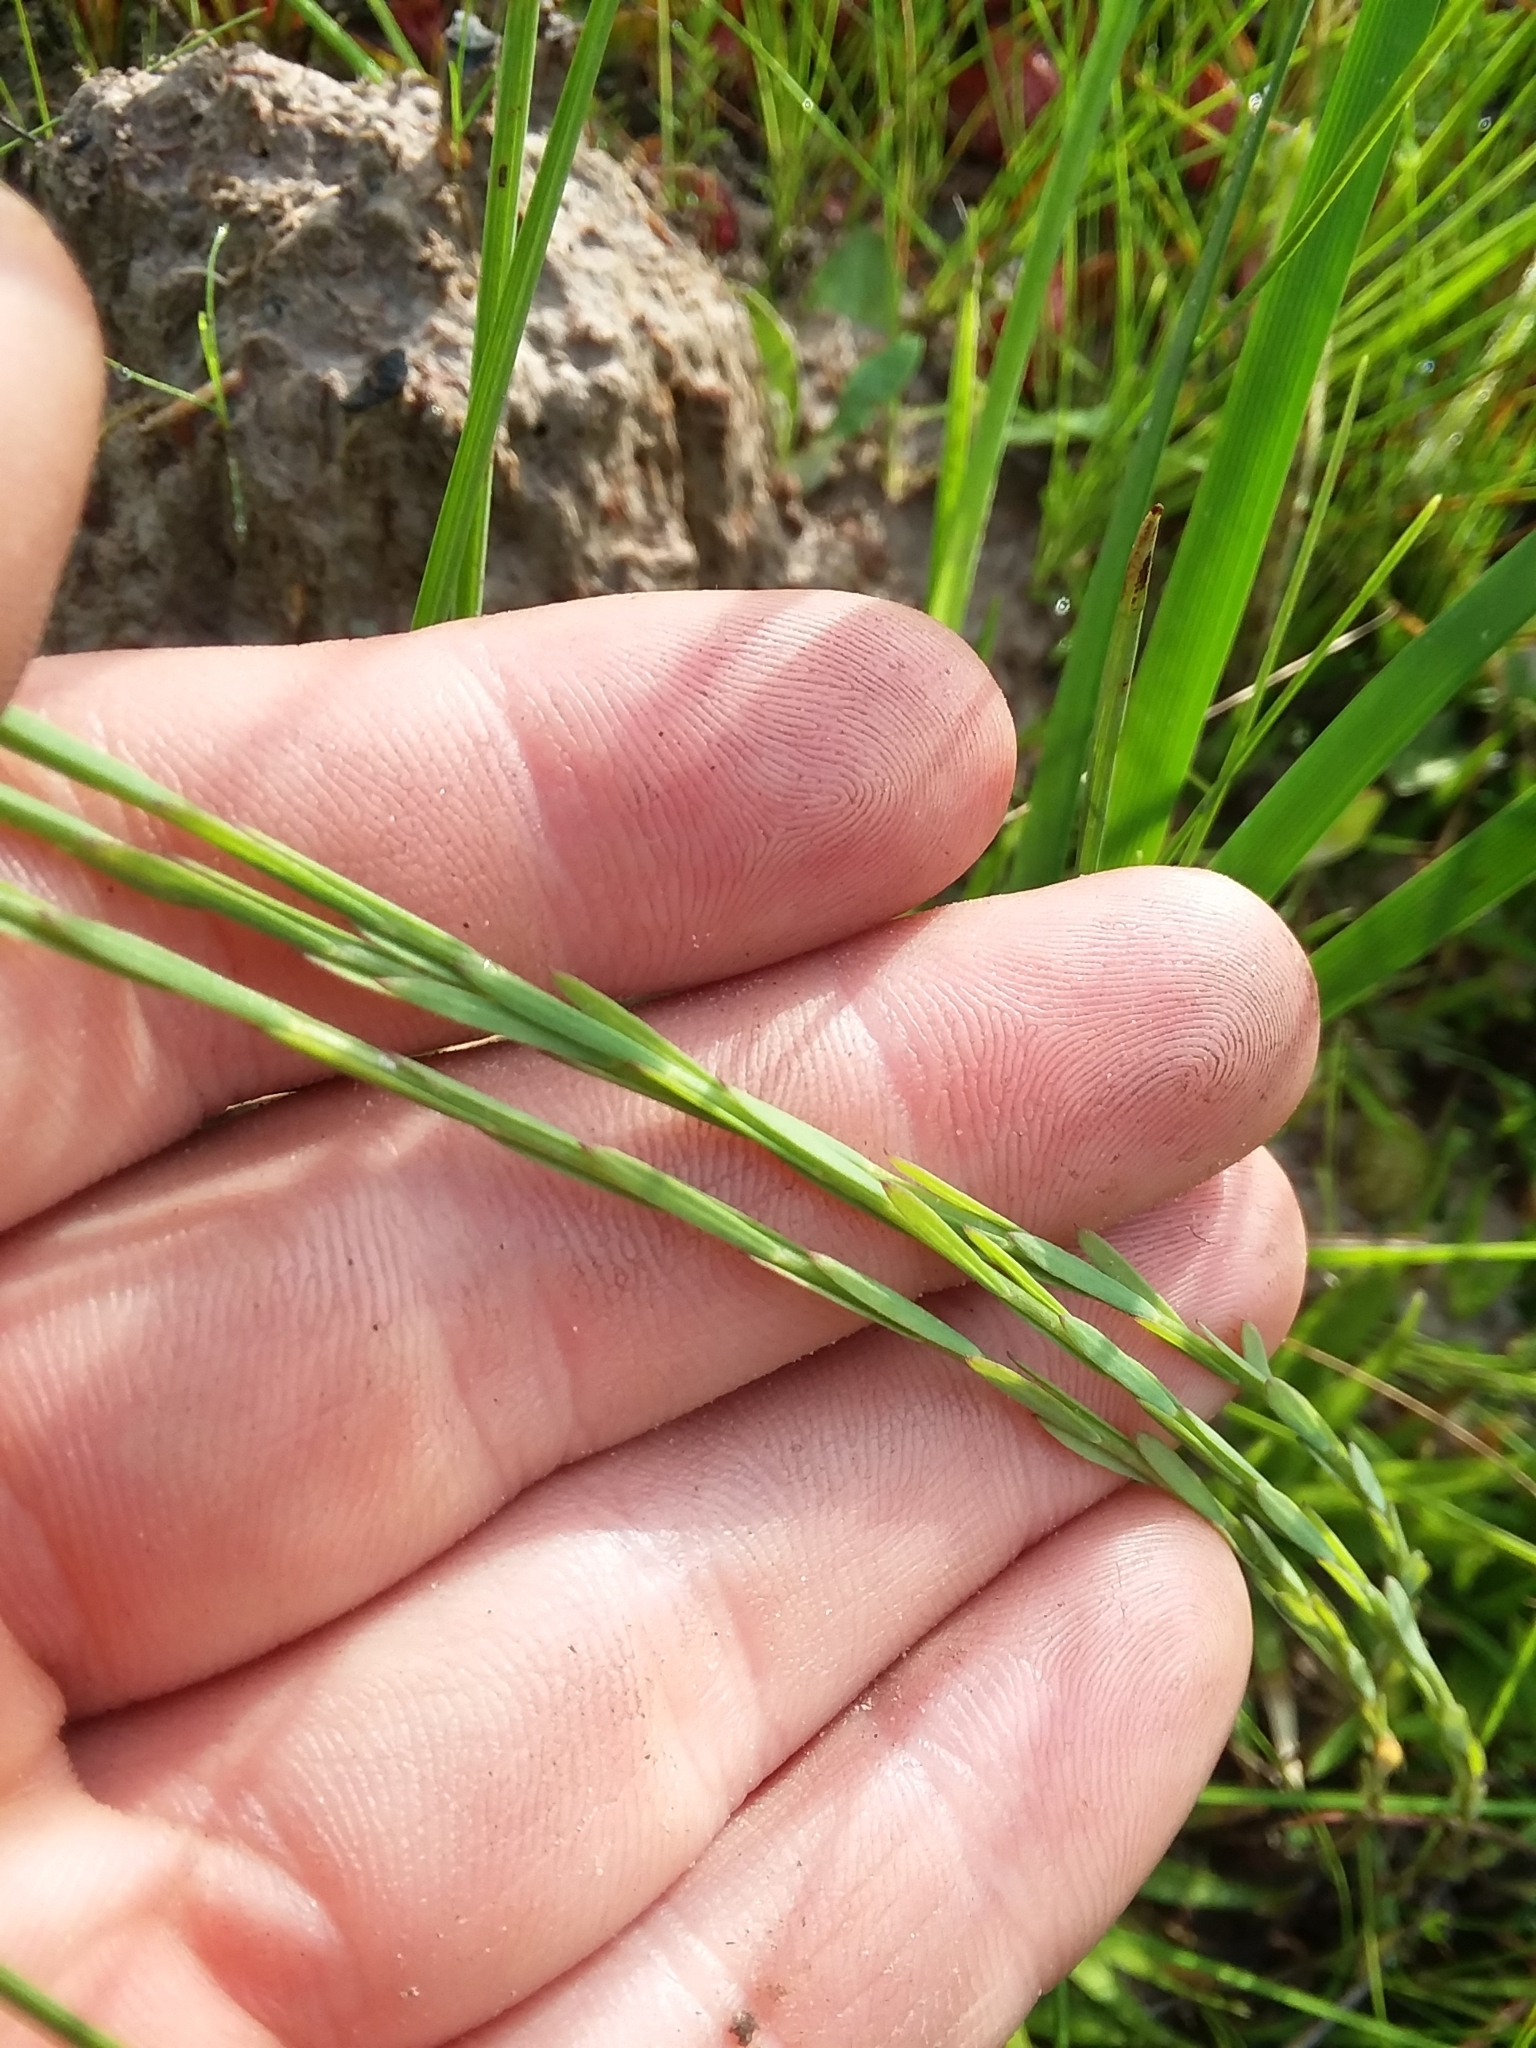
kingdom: Plantae
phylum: Tracheophyta
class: Magnoliopsida
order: Malpighiales
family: Linaceae
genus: Linum
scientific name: Linum floridanum
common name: Florida yellow flax
